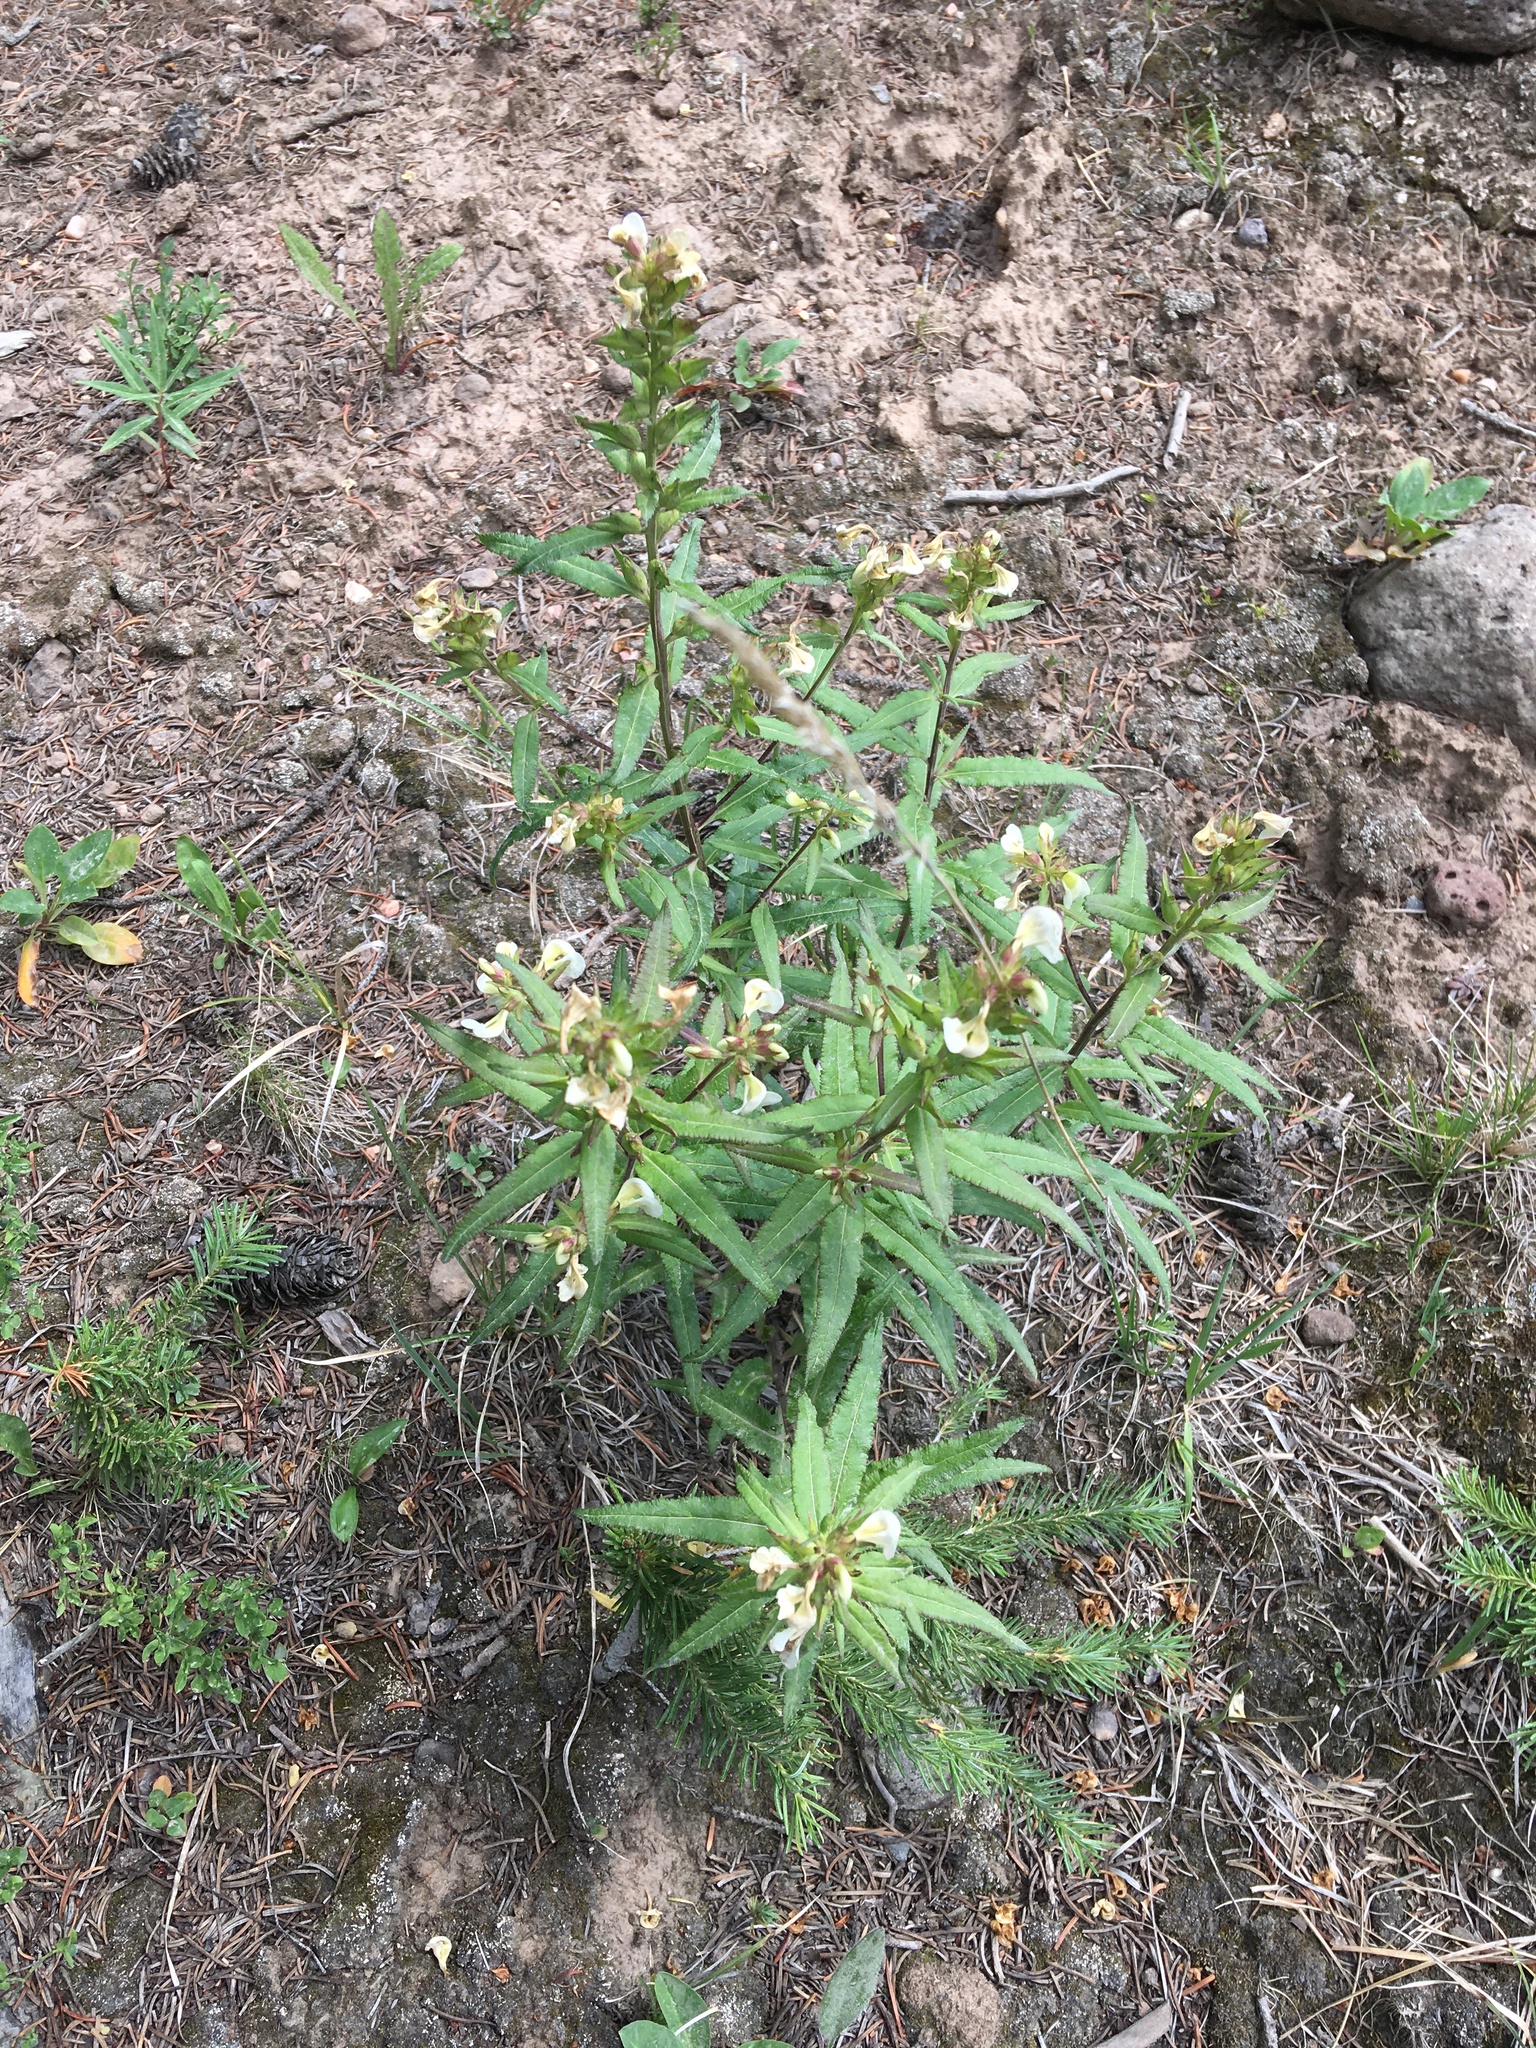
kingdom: Plantae
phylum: Tracheophyta
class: Magnoliopsida
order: Lamiales
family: Orobanchaceae
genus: Pedicularis
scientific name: Pedicularis racemosa
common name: Leafy lousewort
